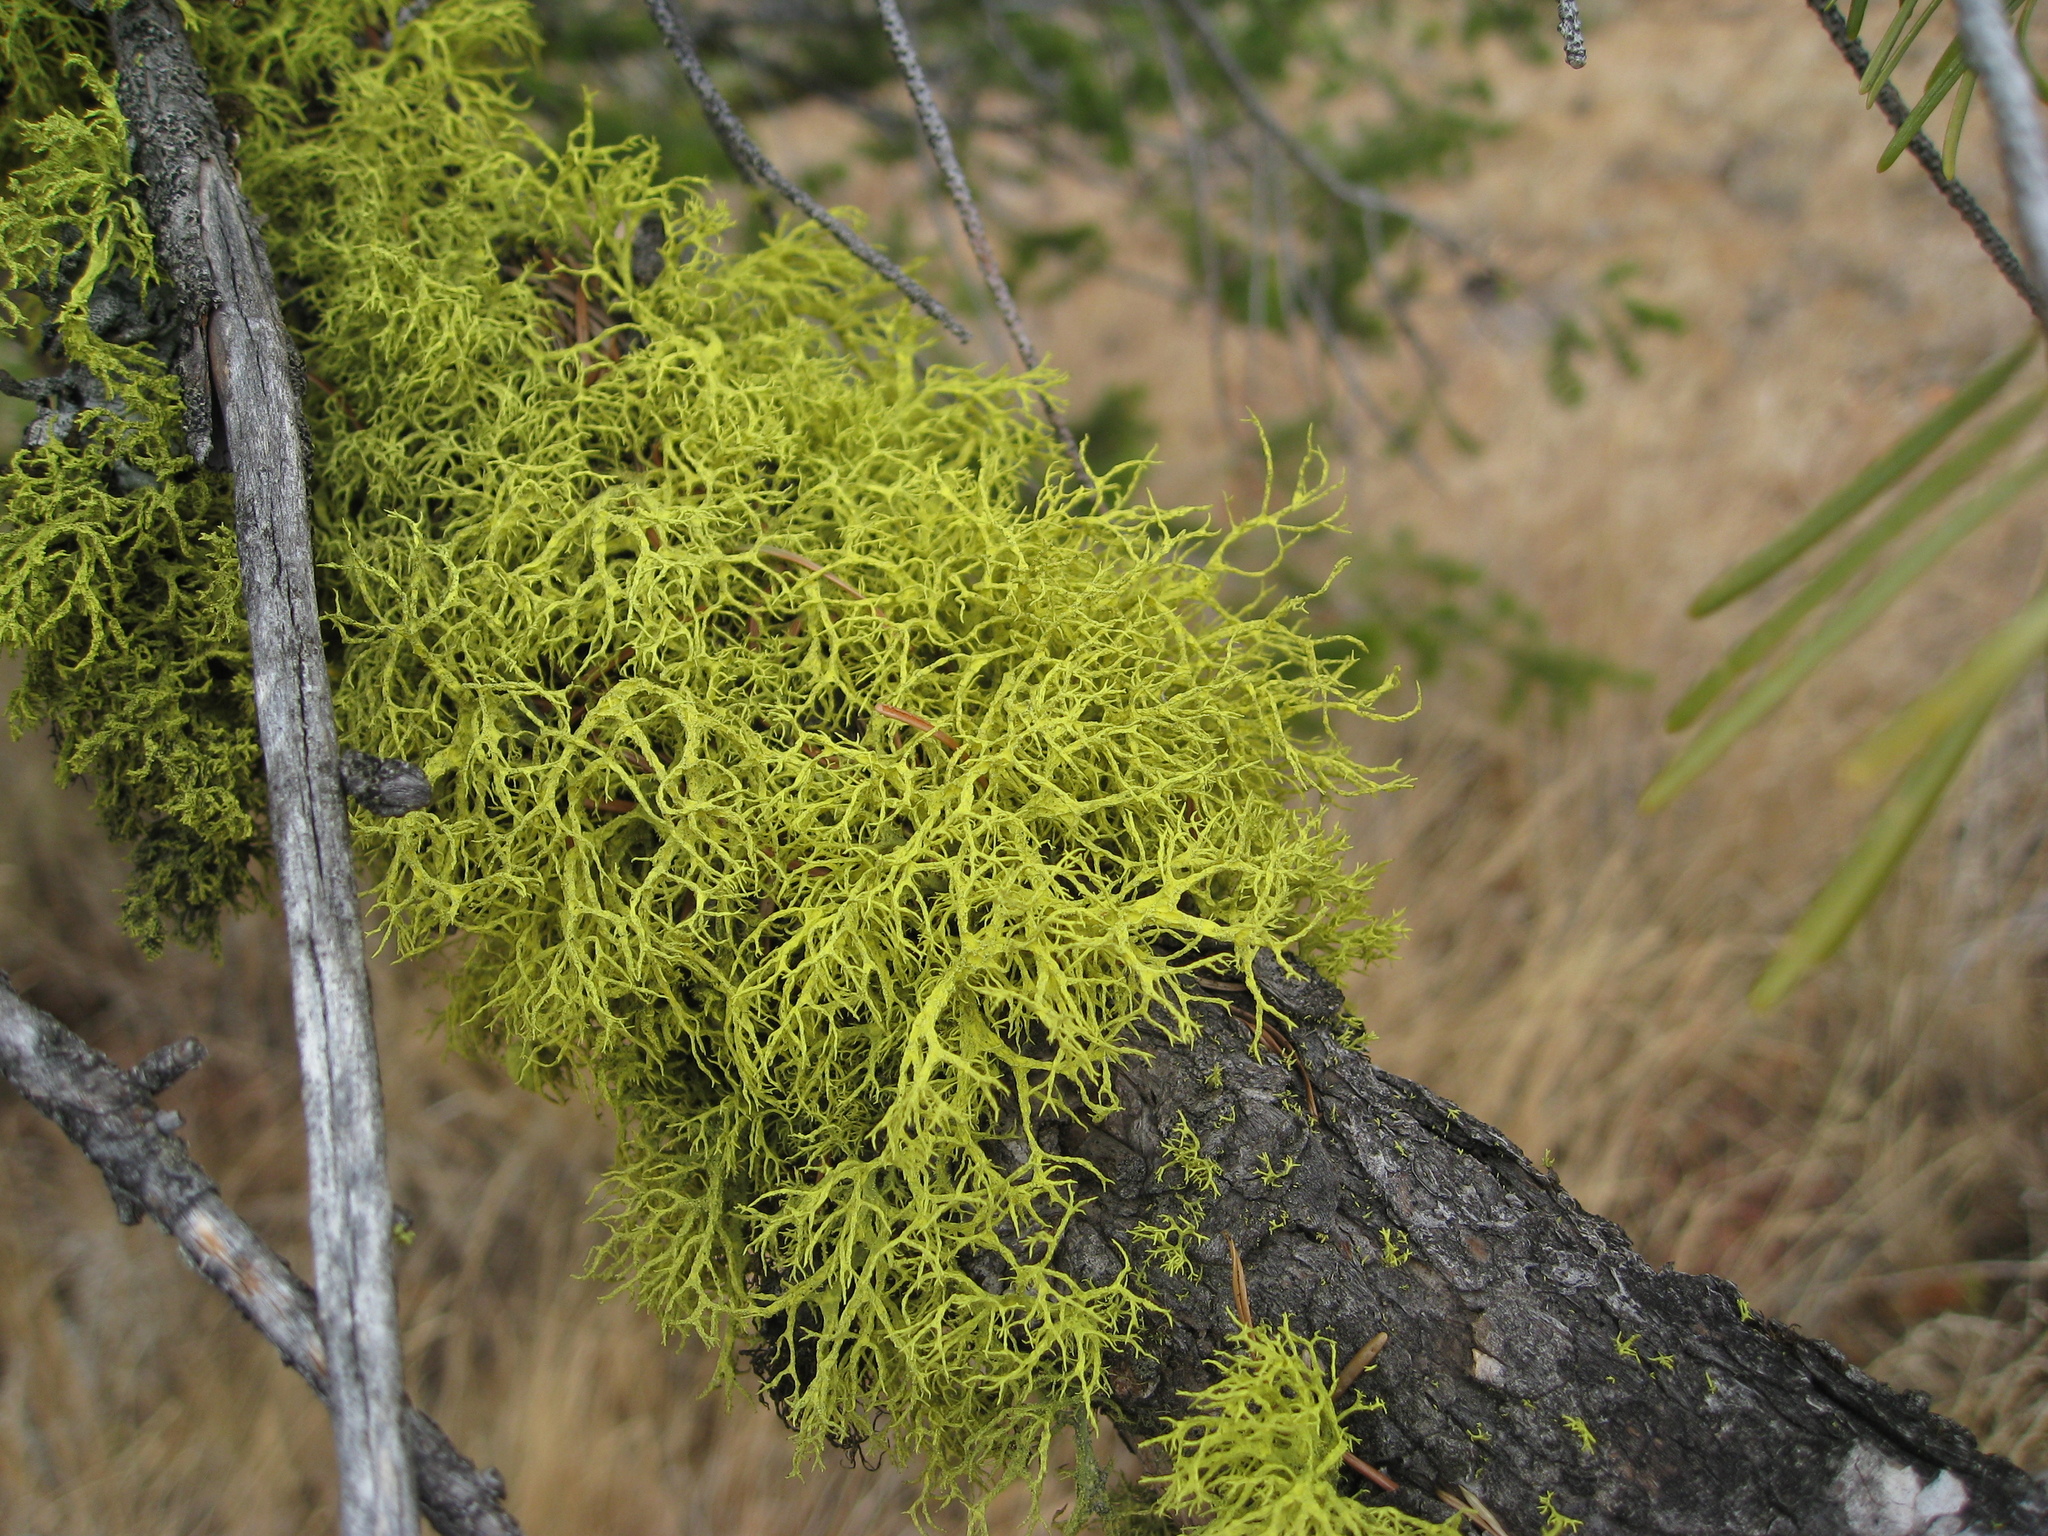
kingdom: Fungi
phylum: Ascomycota
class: Lecanoromycetes
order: Lecanorales
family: Parmeliaceae
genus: Letharia
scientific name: Letharia vulpina
